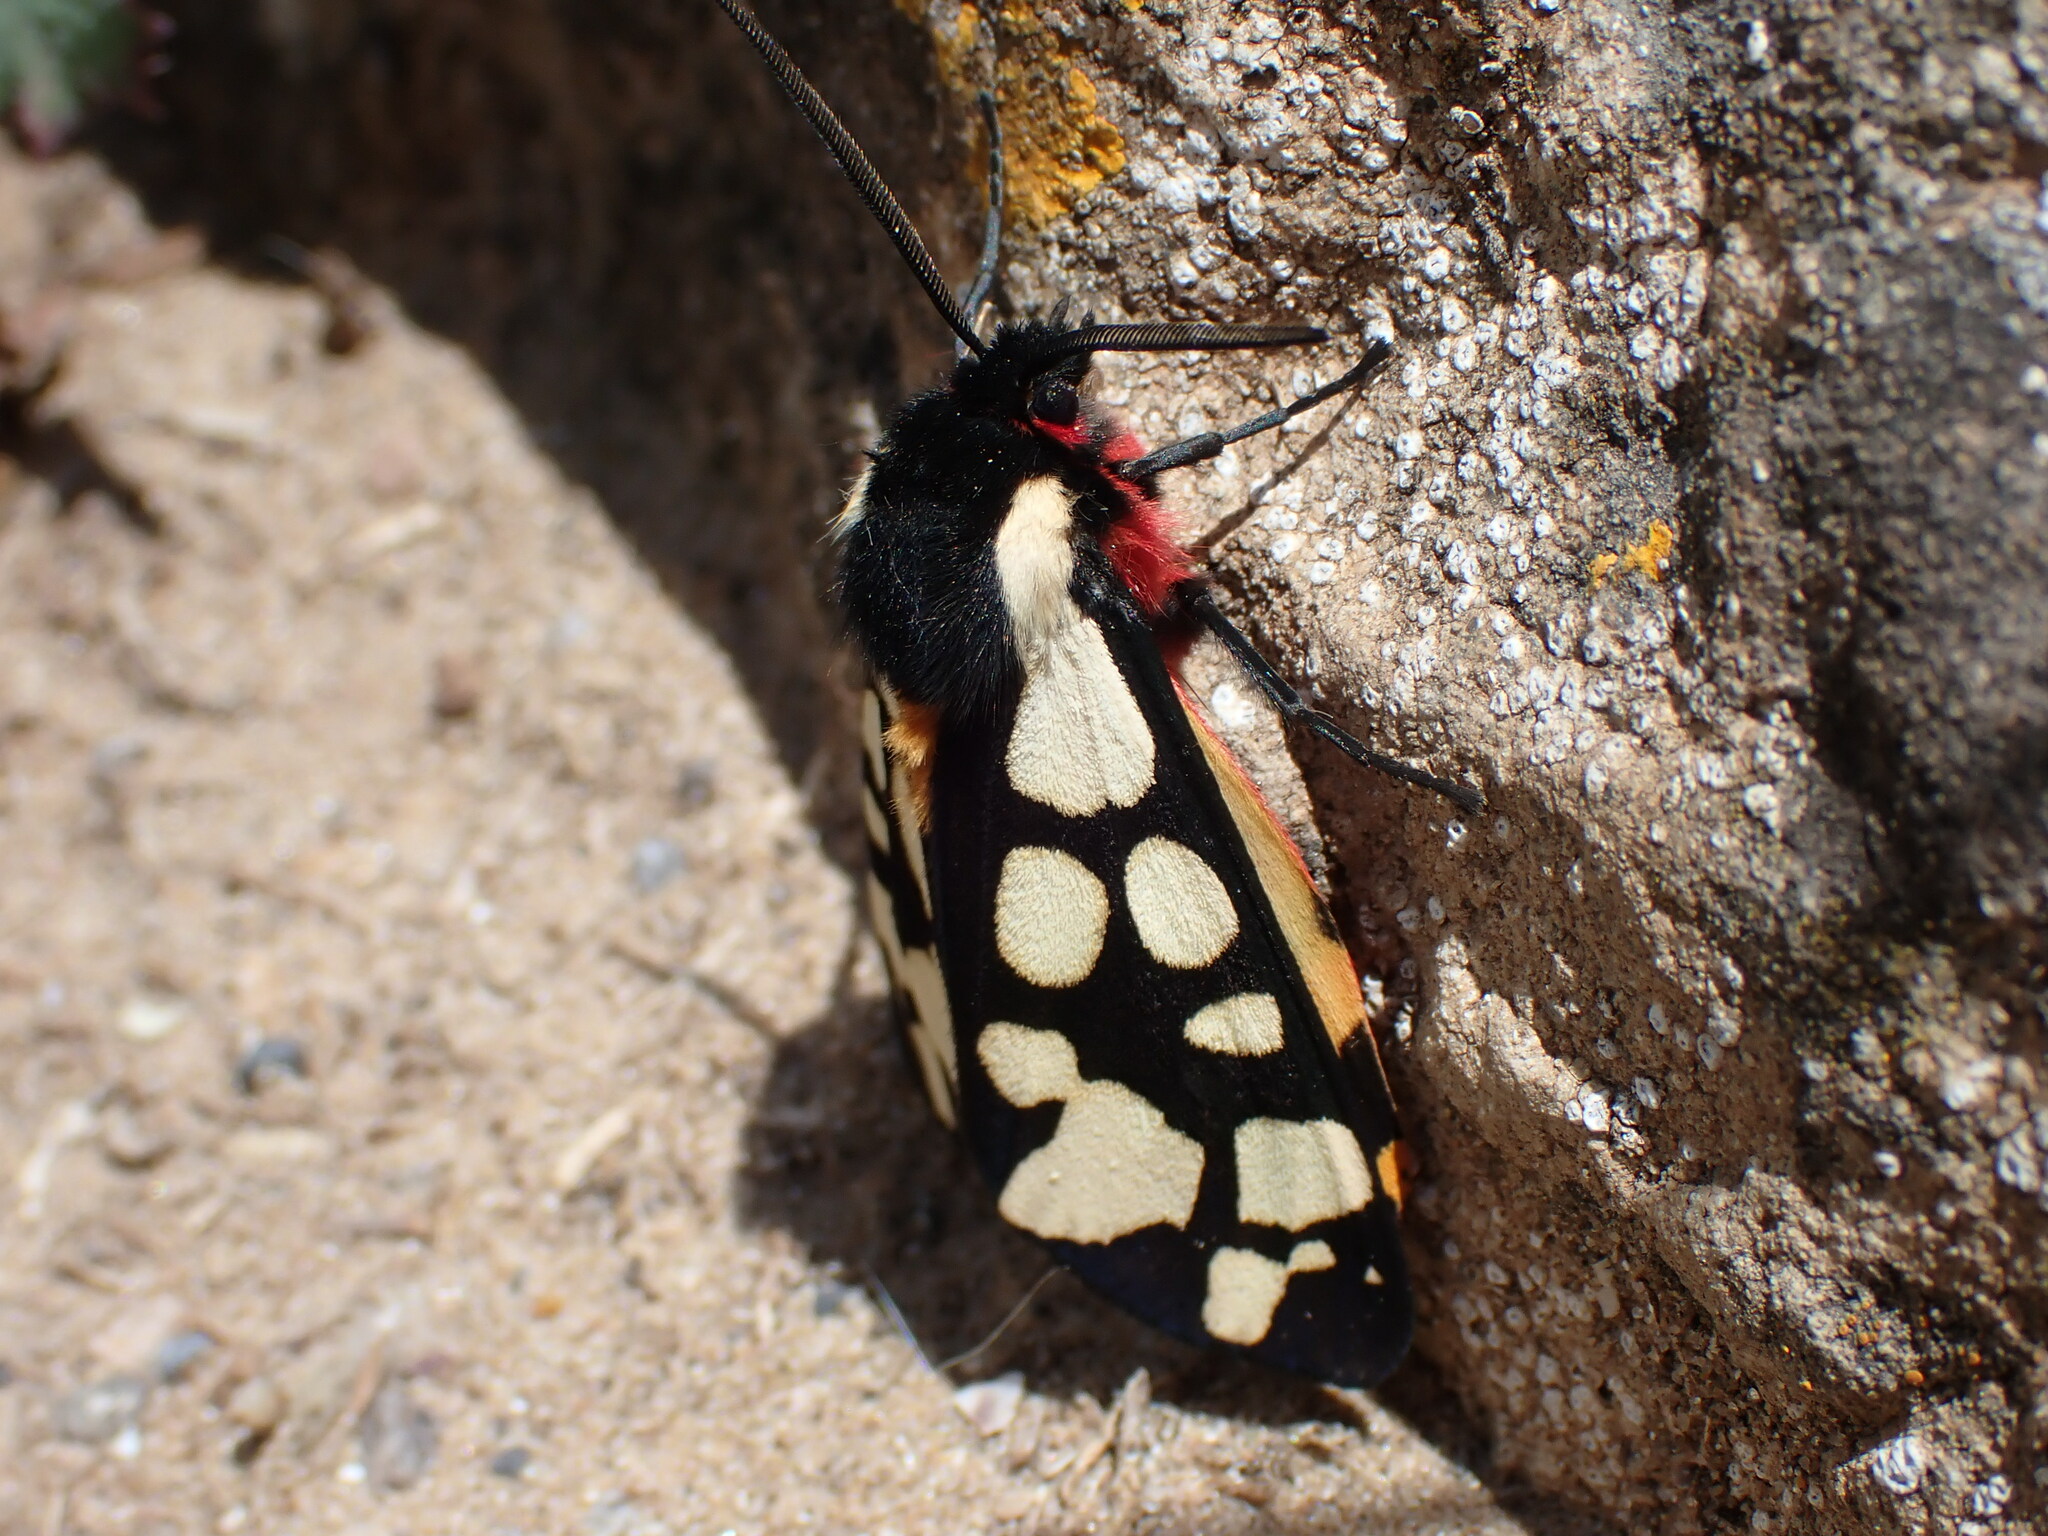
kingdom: Animalia
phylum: Arthropoda
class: Insecta
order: Lepidoptera
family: Erebidae
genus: Epicallia
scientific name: Epicallia villica
